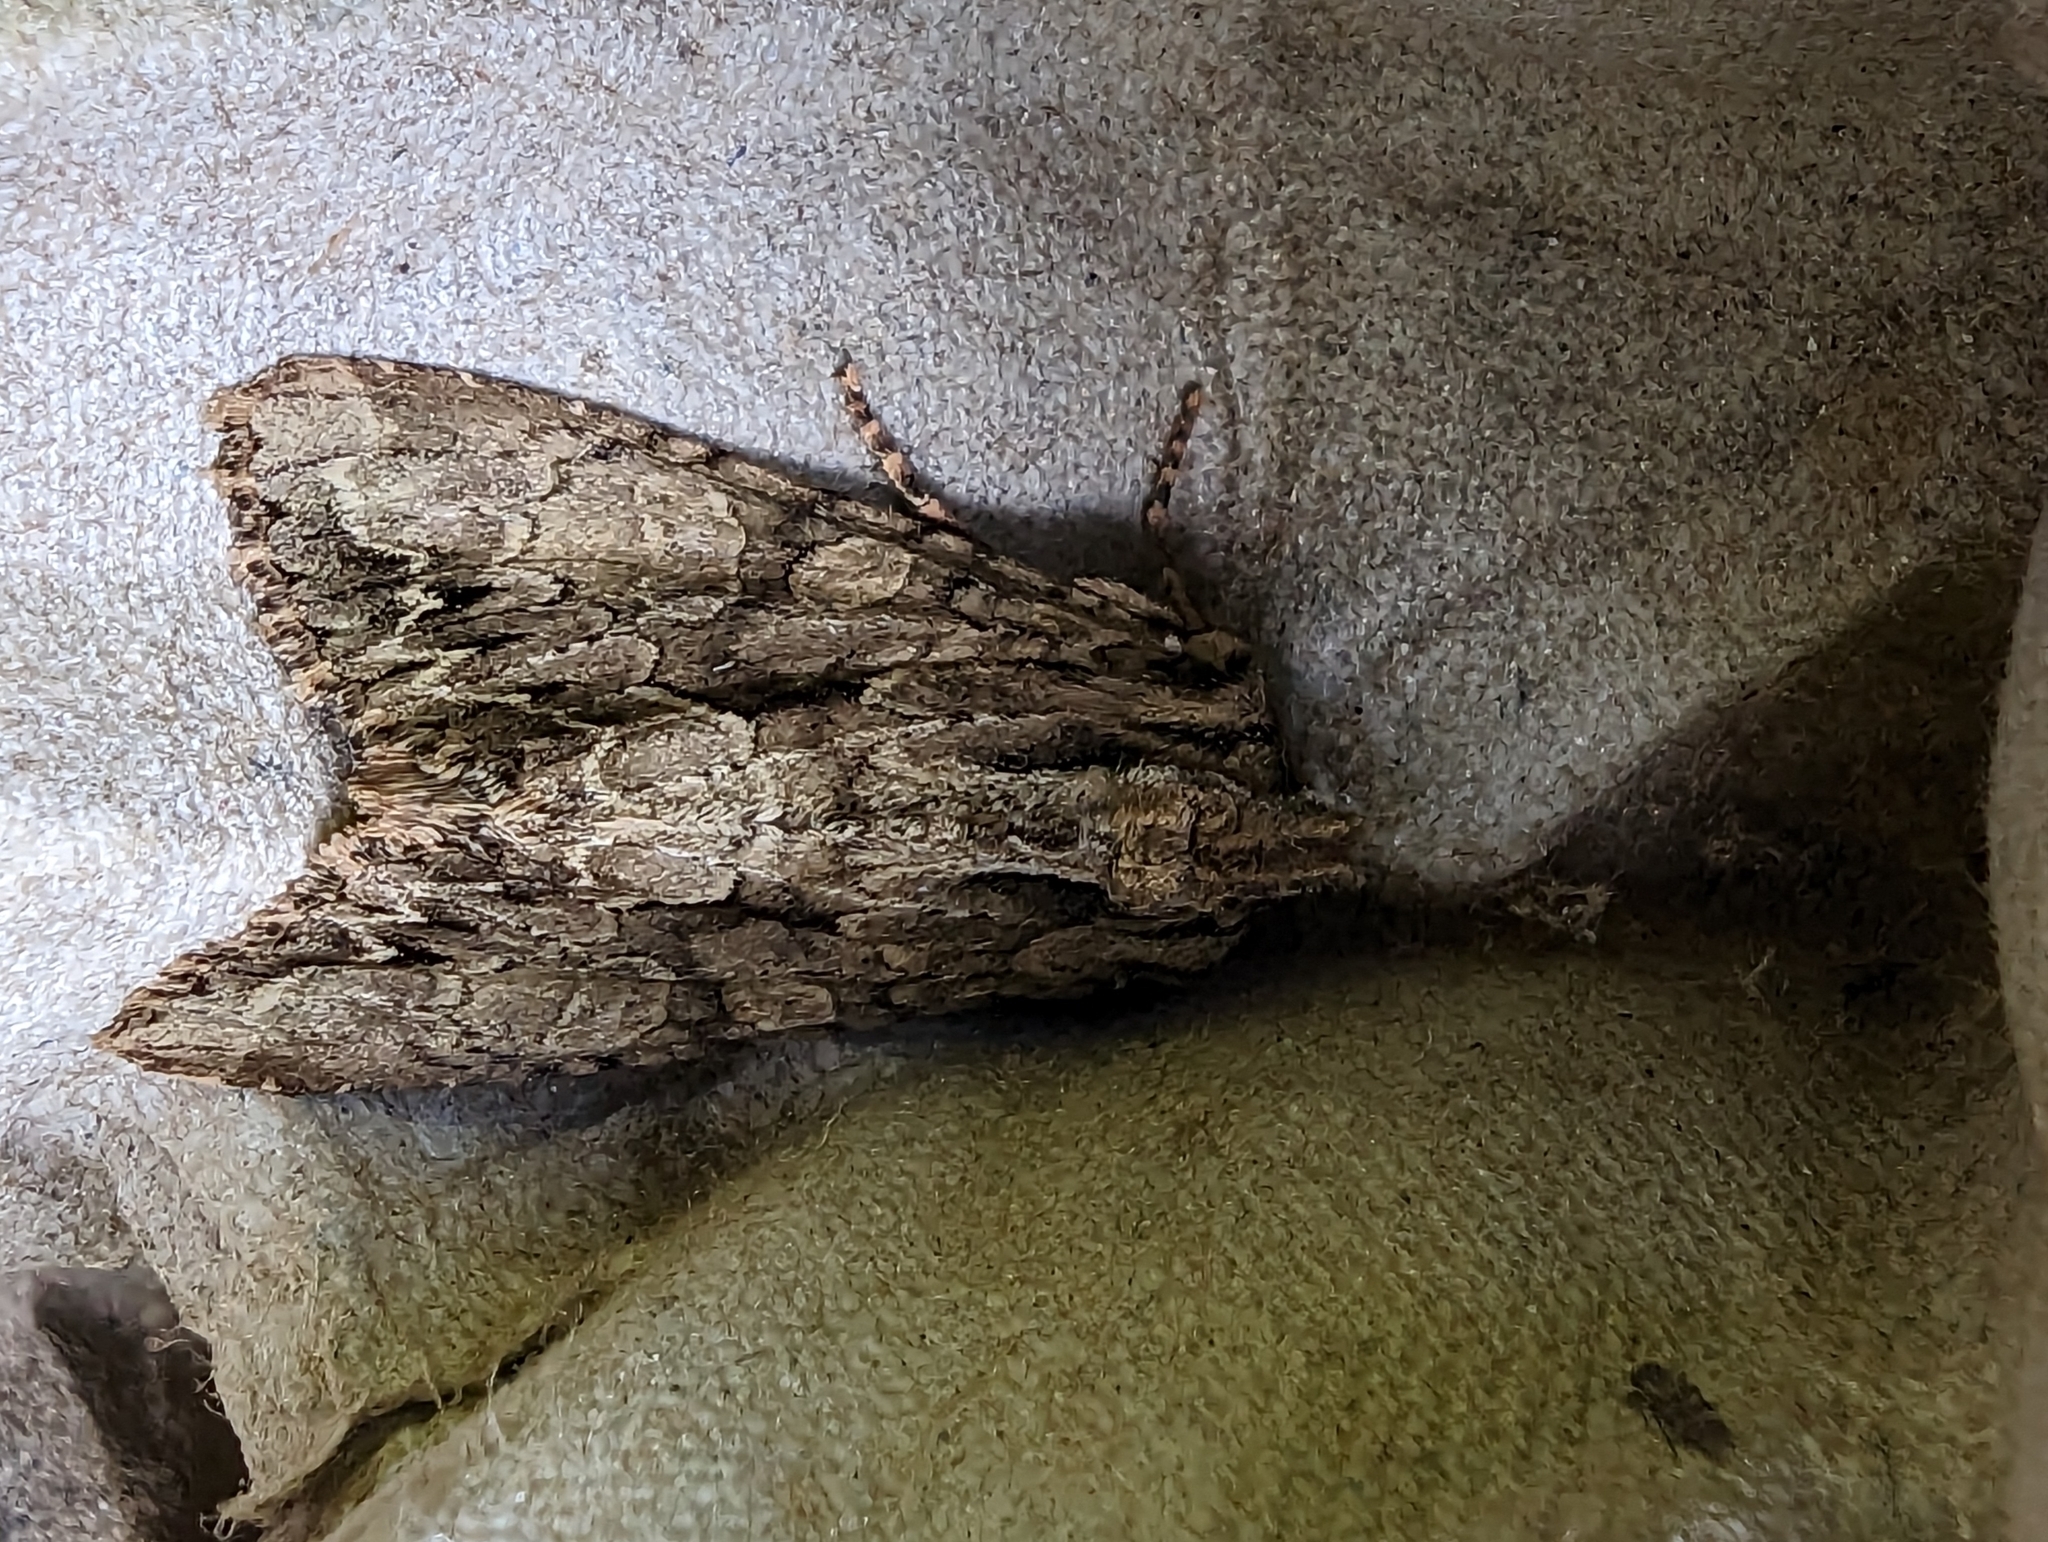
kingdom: Animalia
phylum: Arthropoda
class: Insecta
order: Lepidoptera
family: Noctuidae
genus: Apamea
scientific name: Apamea monoglypha
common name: Dark arches
